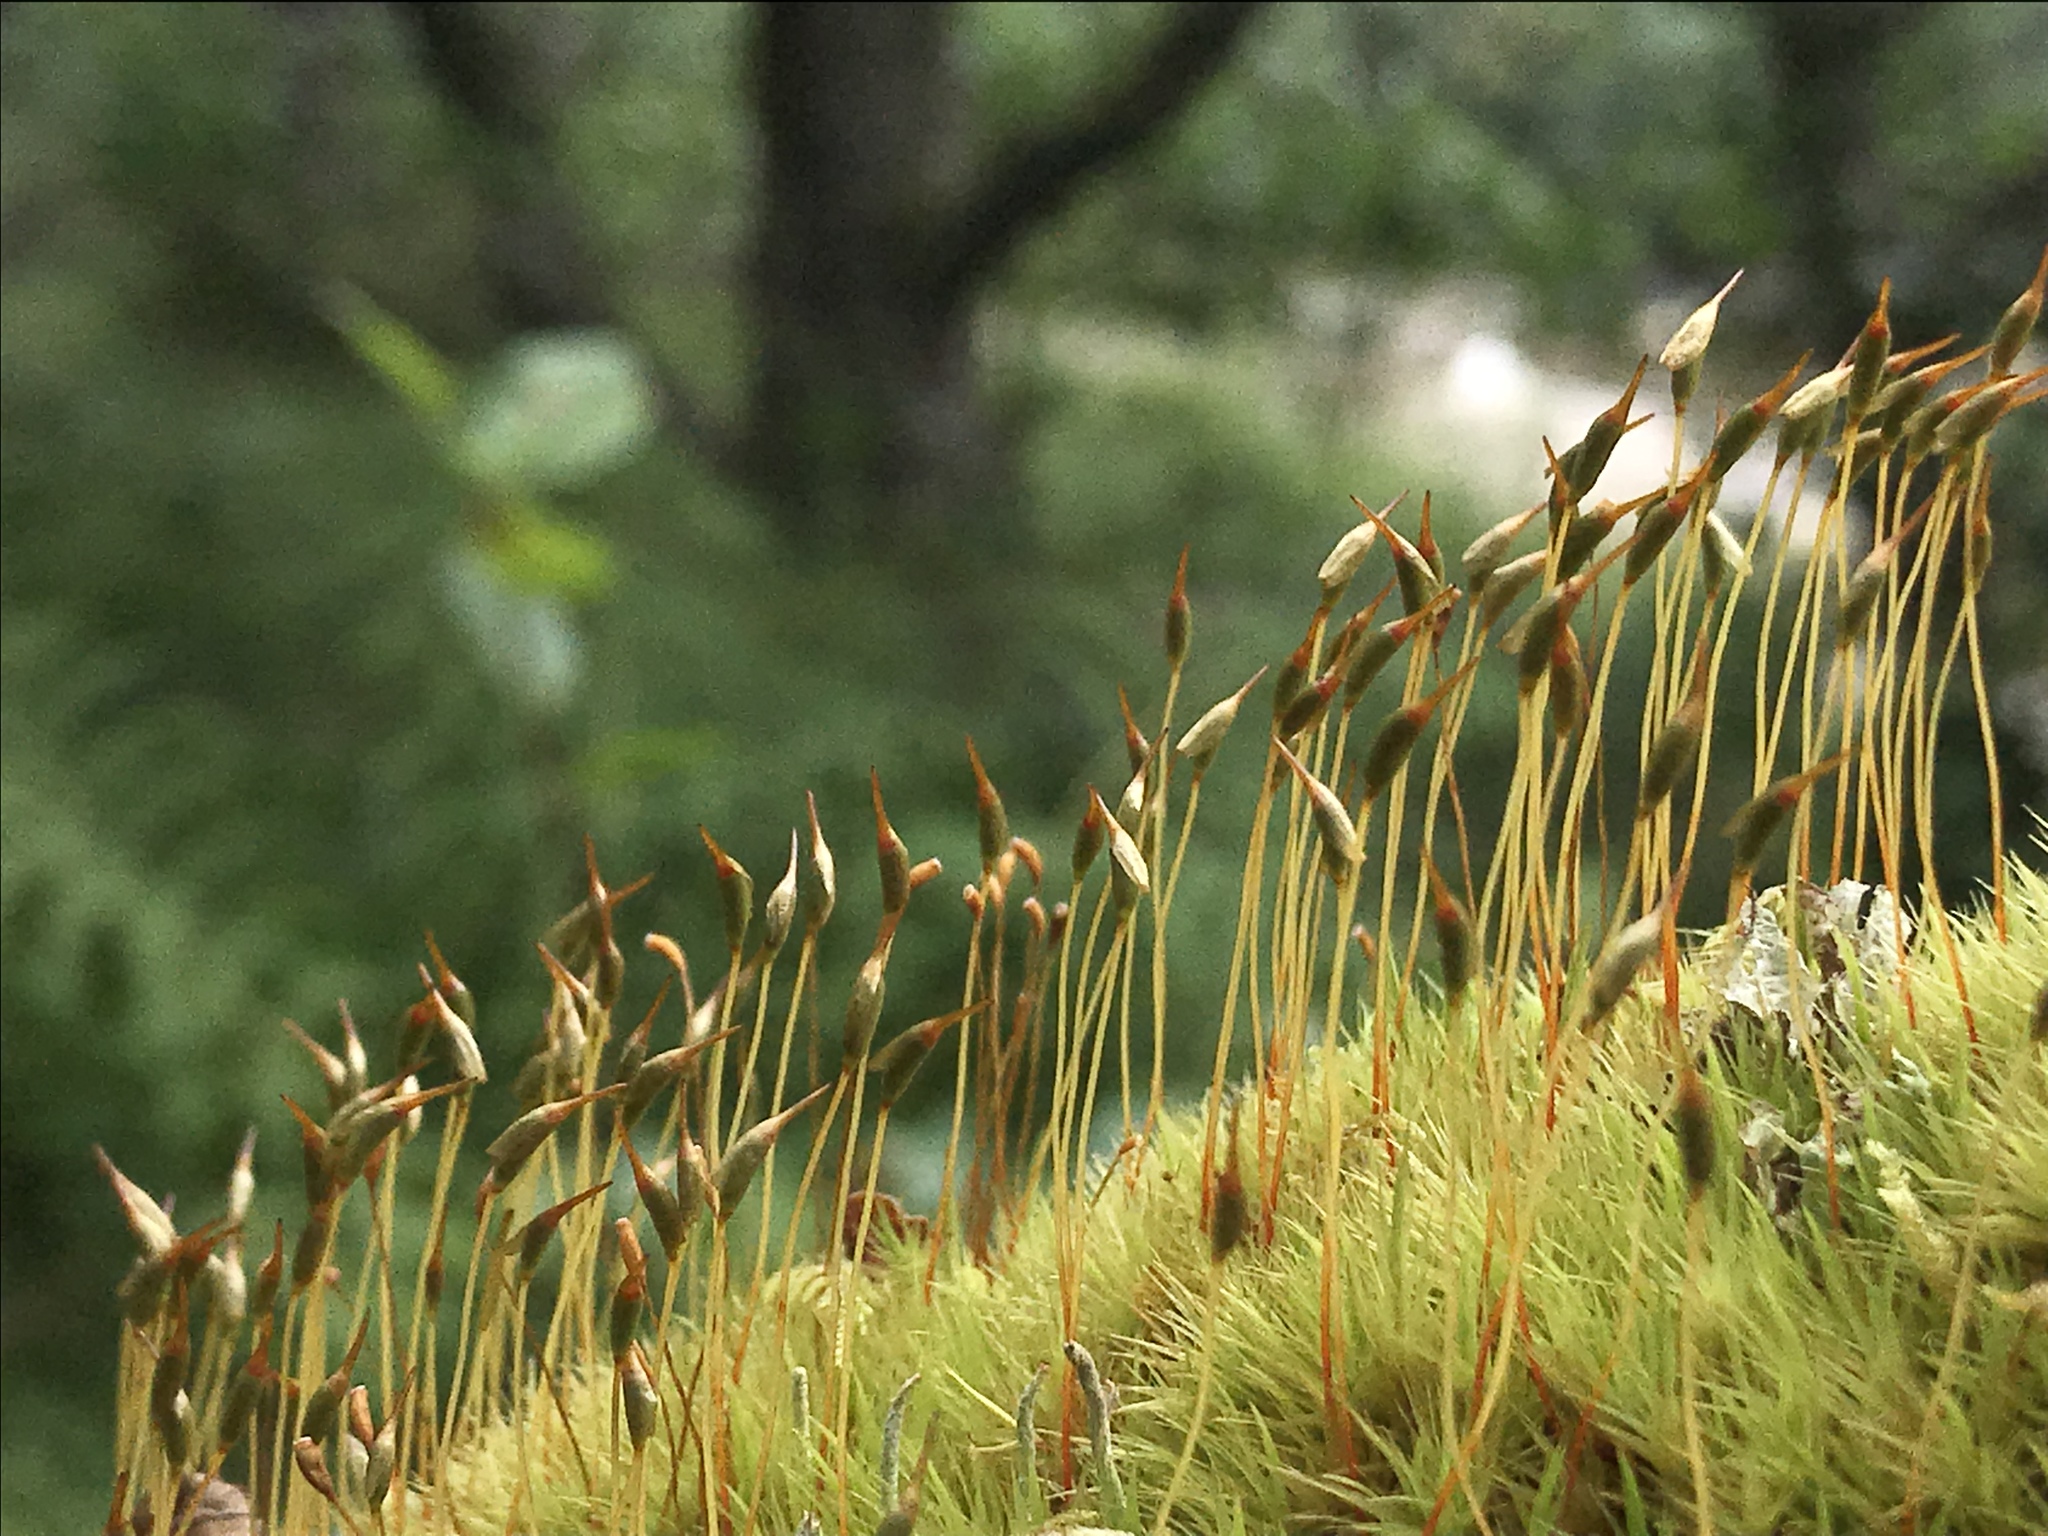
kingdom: Plantae
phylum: Bryophyta
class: Bryopsida
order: Dicranales
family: Dicranaceae
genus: Dicranum
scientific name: Dicranum scoparium
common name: Broom fork-moss
